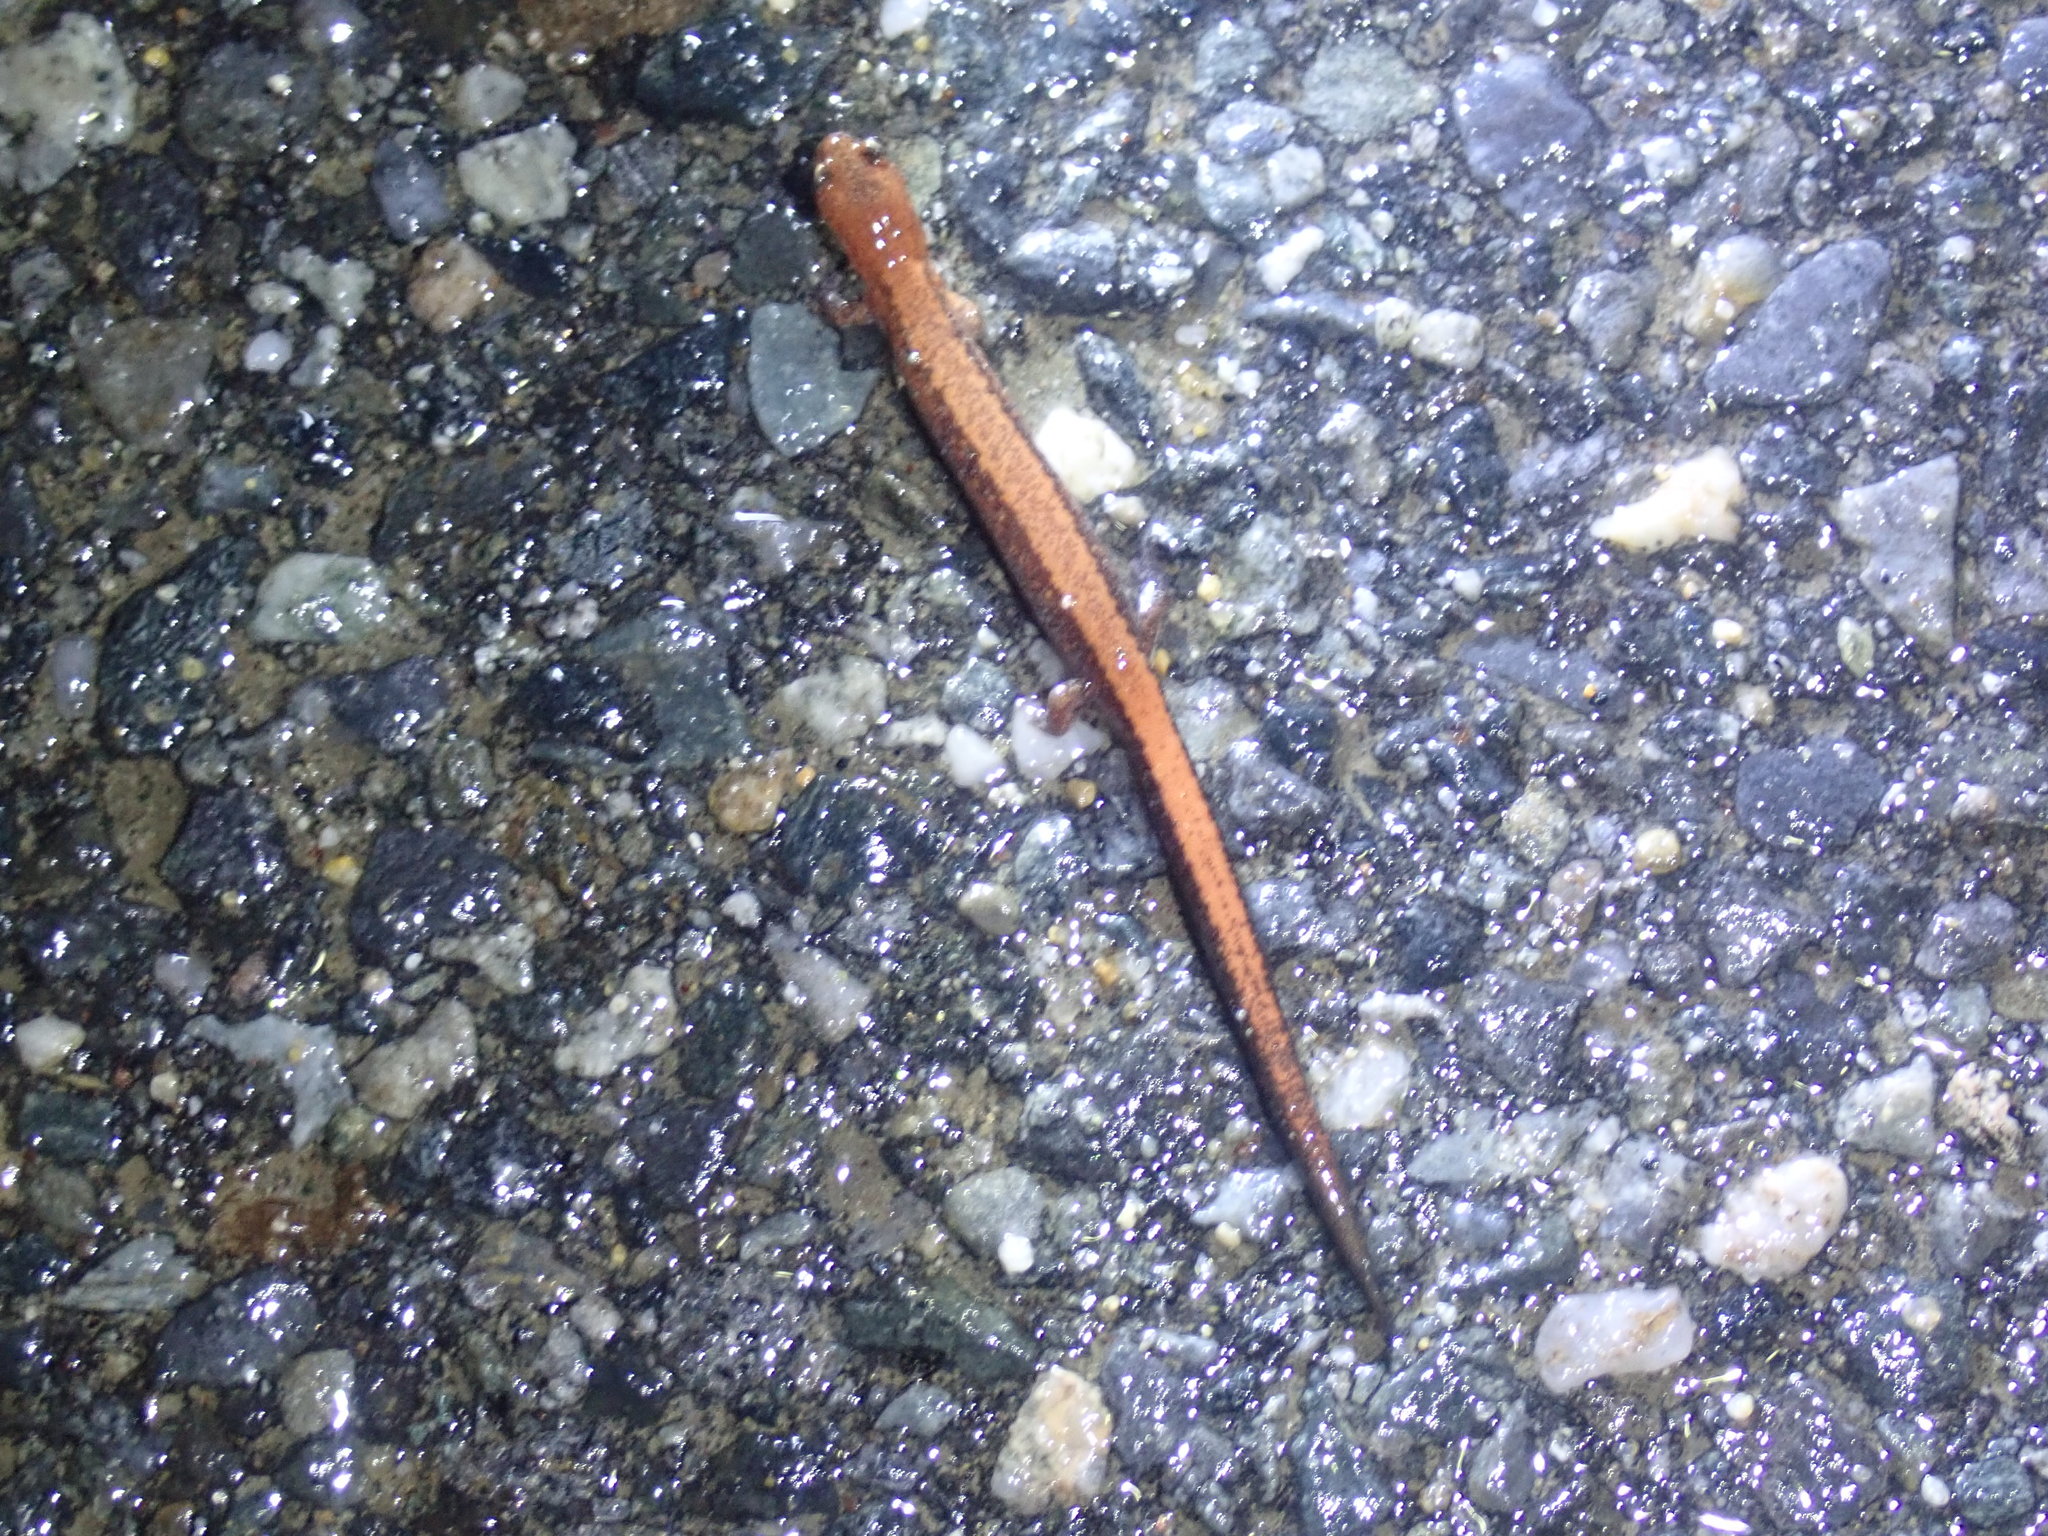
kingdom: Animalia
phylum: Chordata
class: Amphibia
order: Caudata
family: Plethodontidae
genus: Plethodon
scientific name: Plethodon cinereus
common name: Redback salamander
